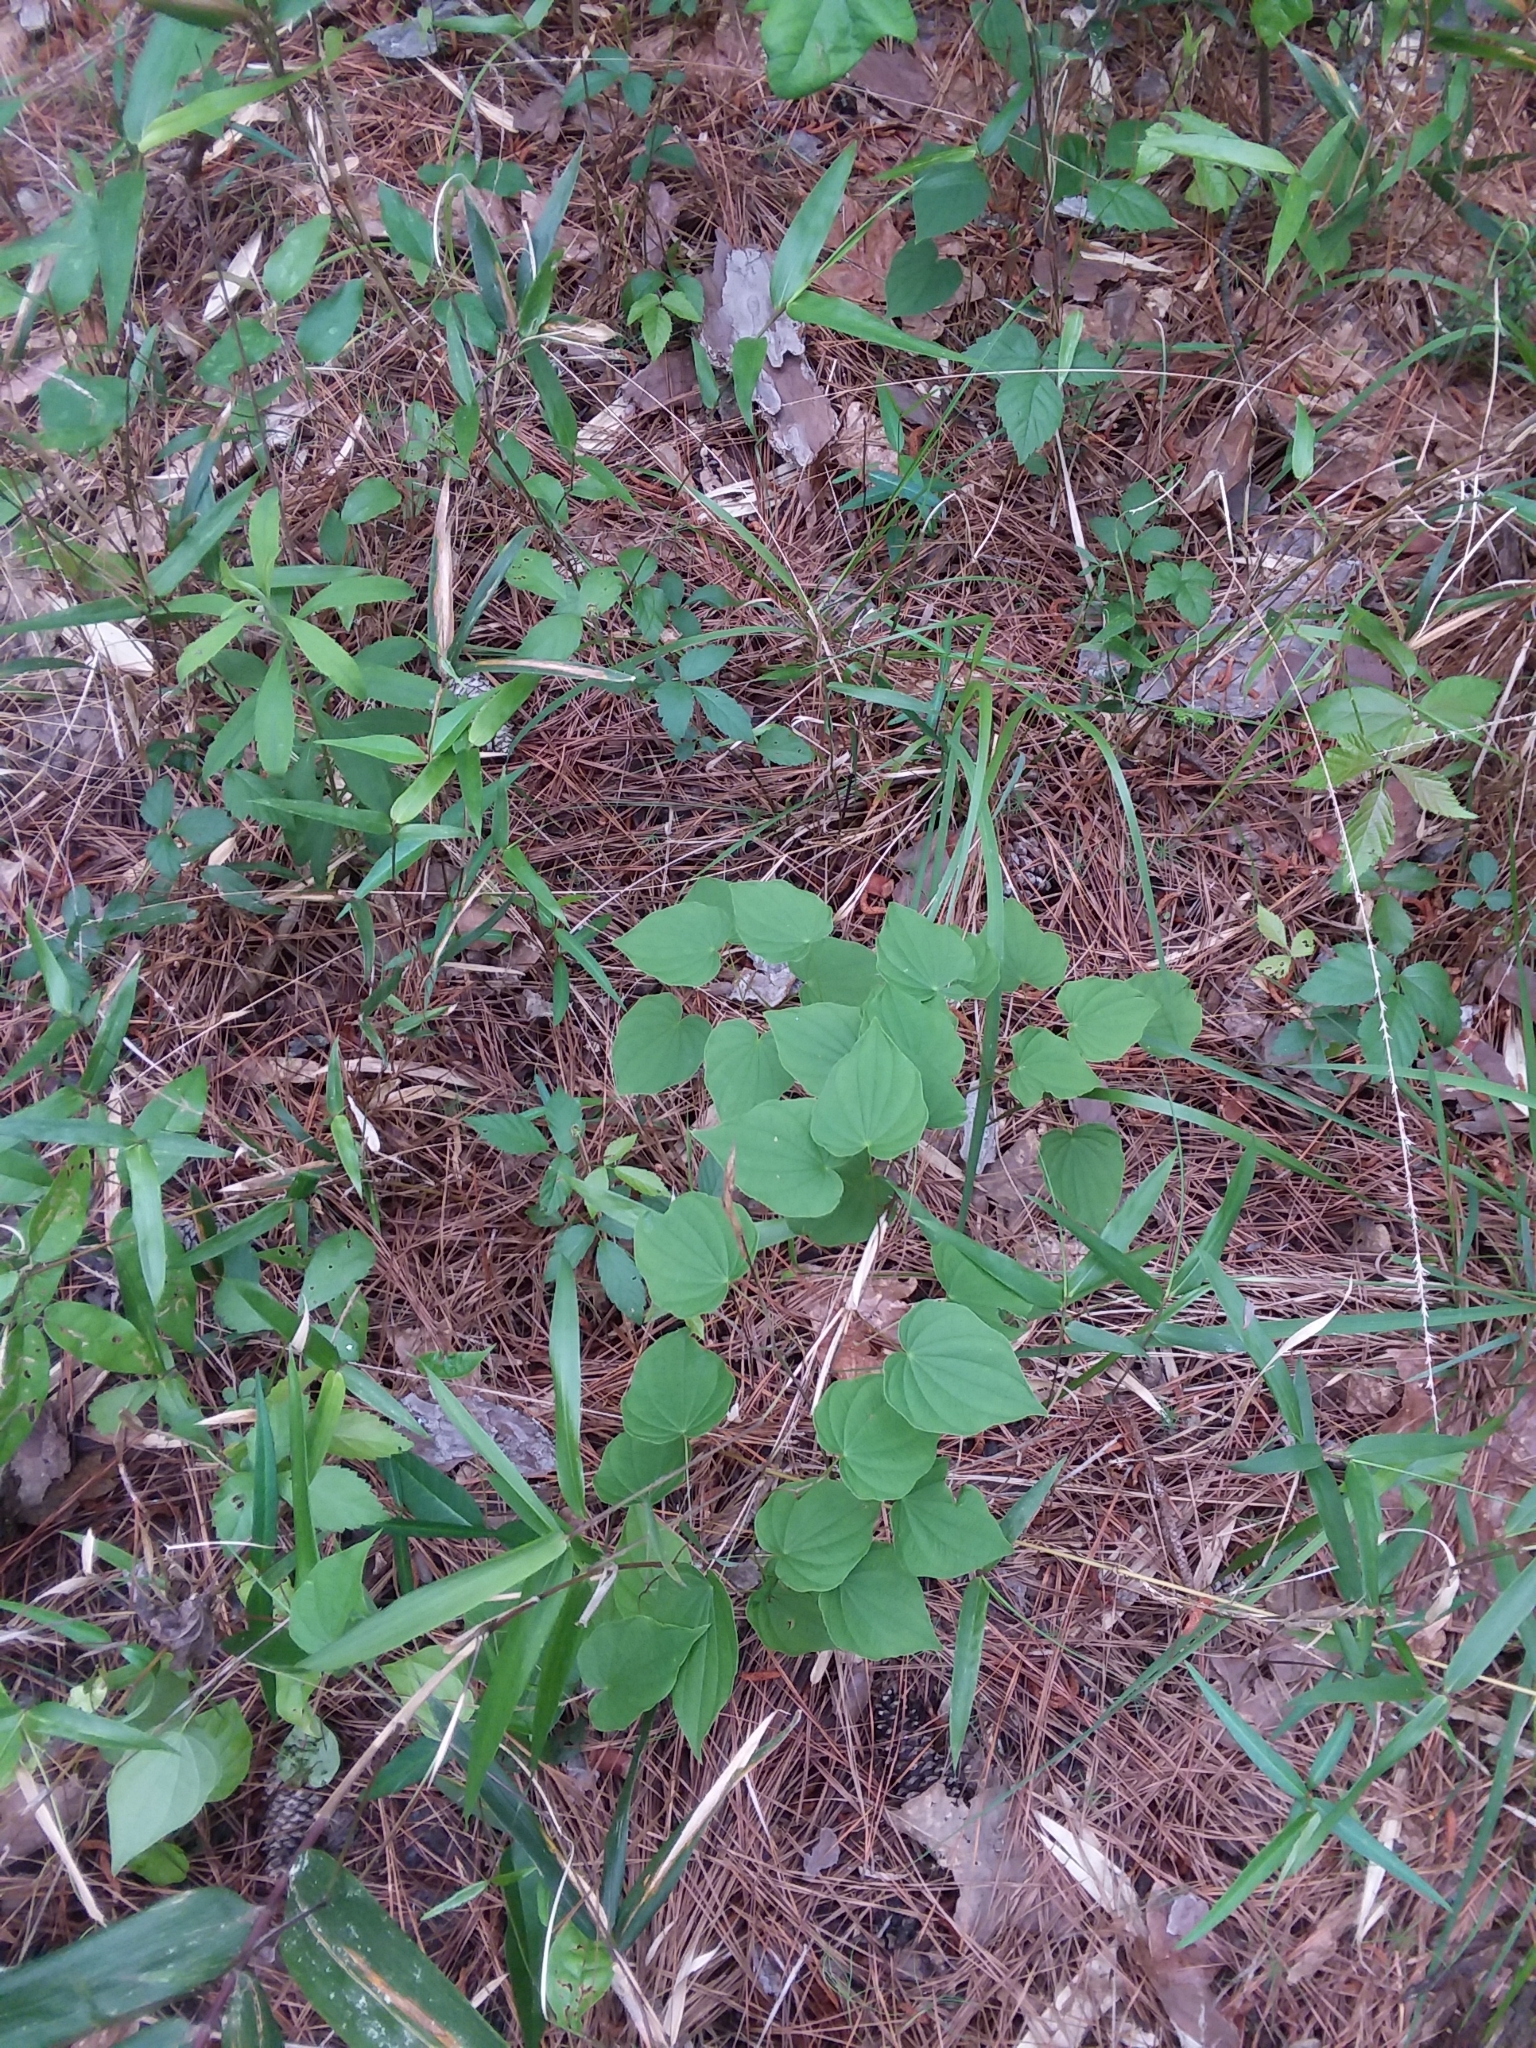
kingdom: Plantae
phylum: Tracheophyta
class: Liliopsida
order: Dioscoreales
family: Dioscoreaceae
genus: Dioscorea
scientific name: Dioscorea villosa
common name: Wild yam
